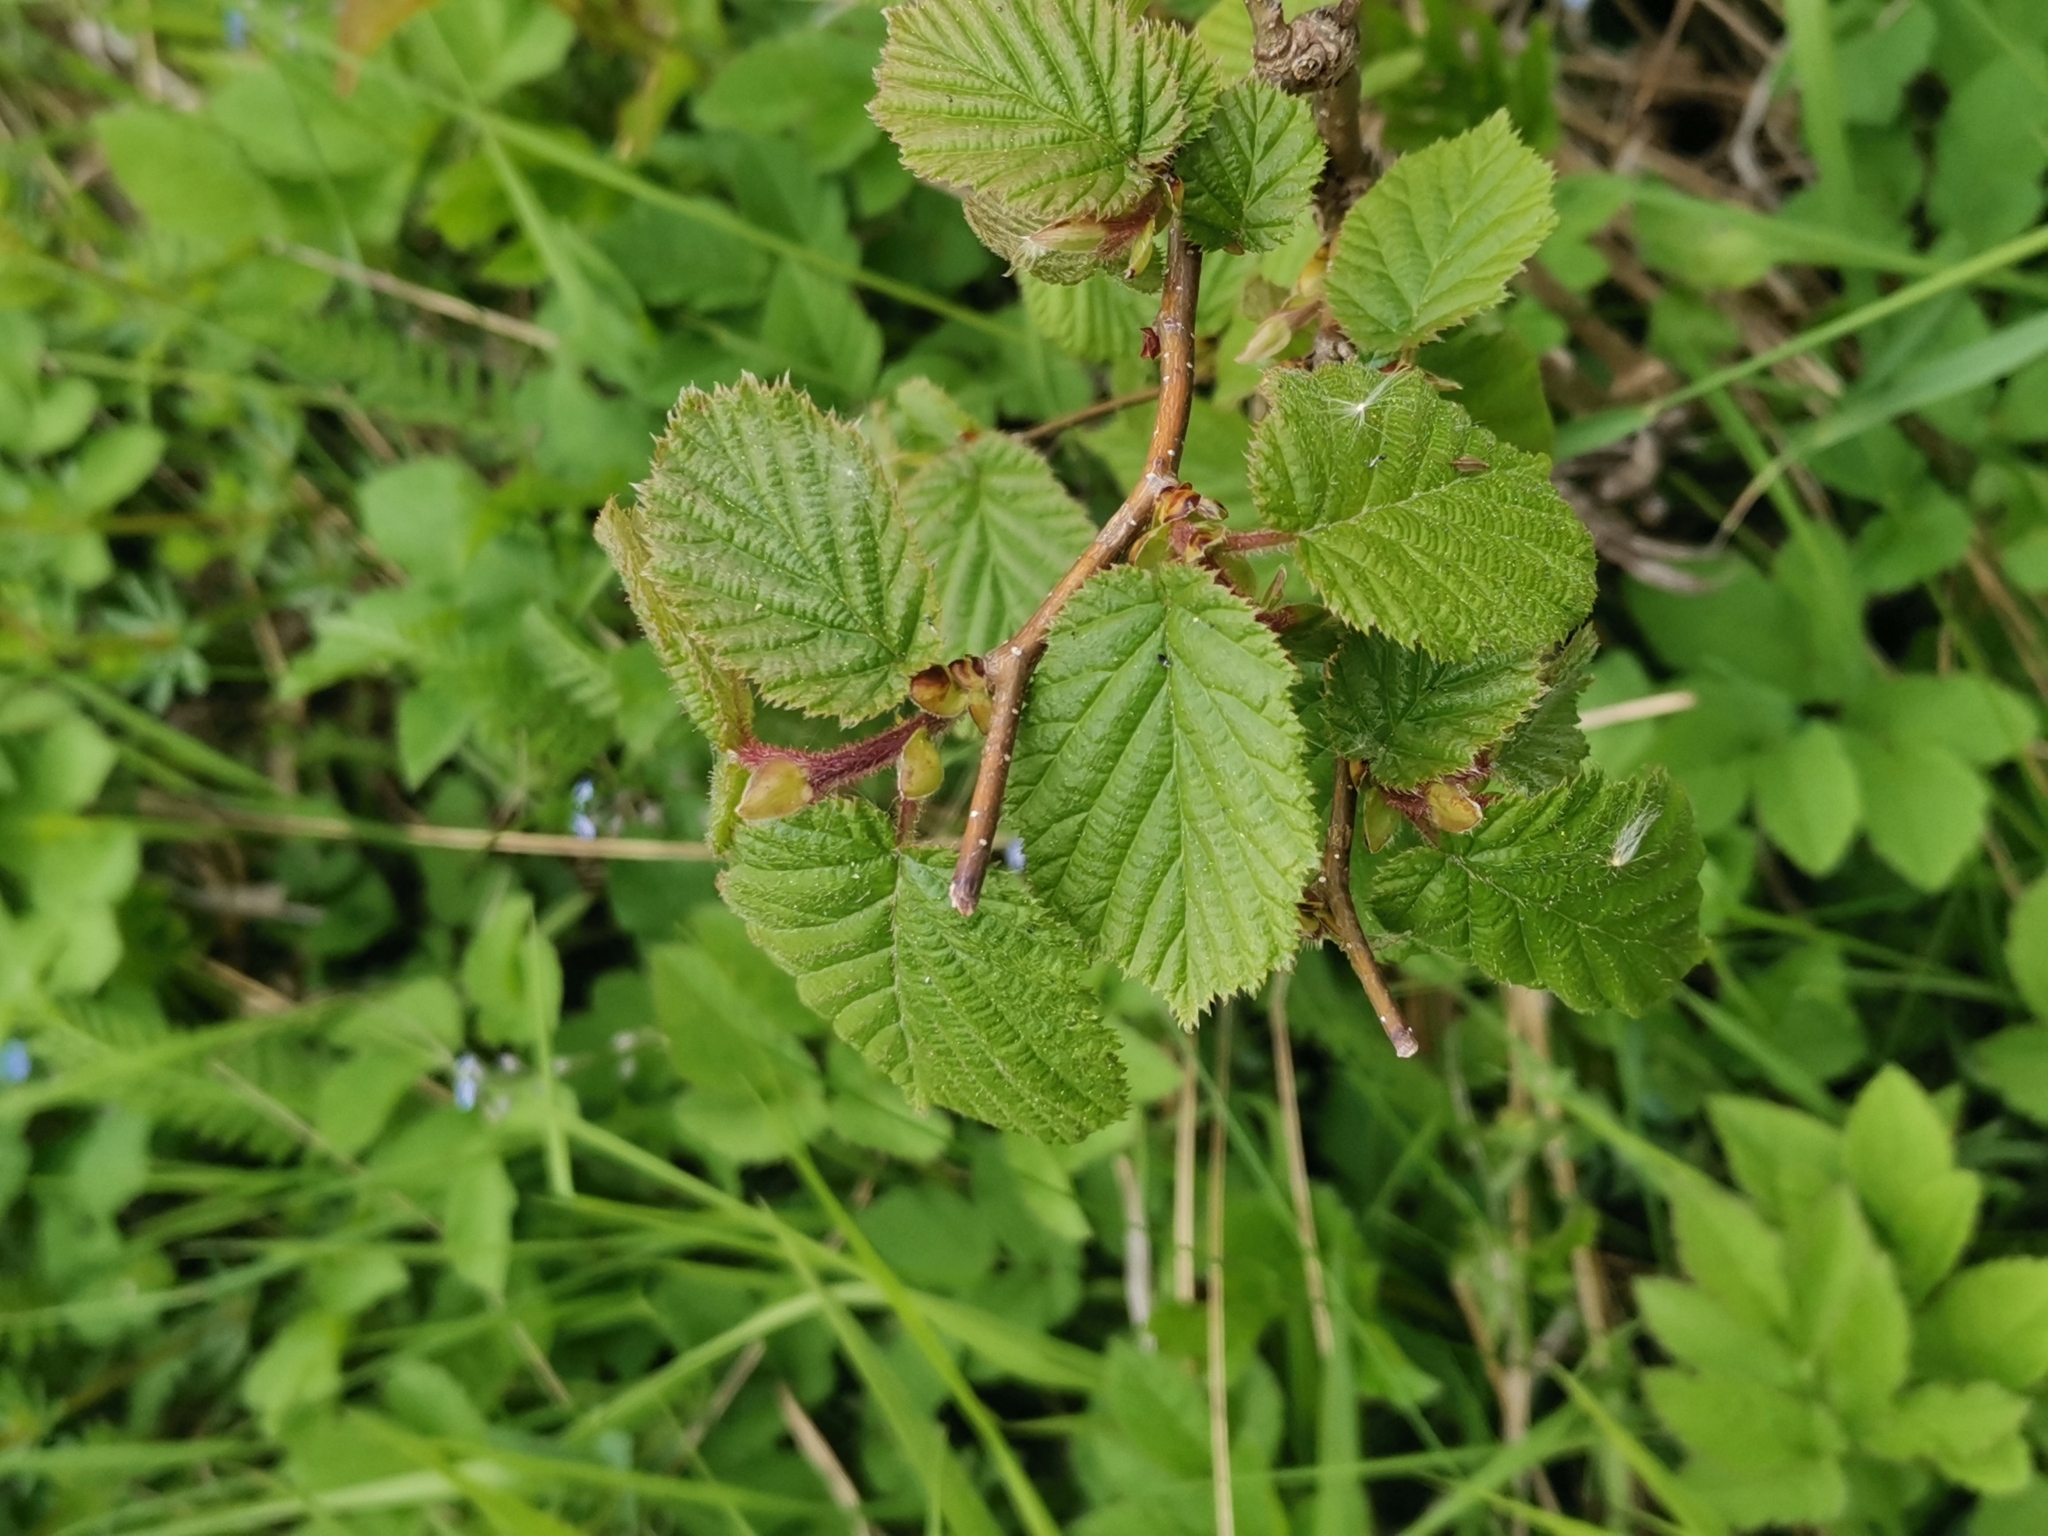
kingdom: Plantae
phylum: Tracheophyta
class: Magnoliopsida
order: Fagales
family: Betulaceae
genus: Corylus
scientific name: Corylus avellana
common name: European hazel
